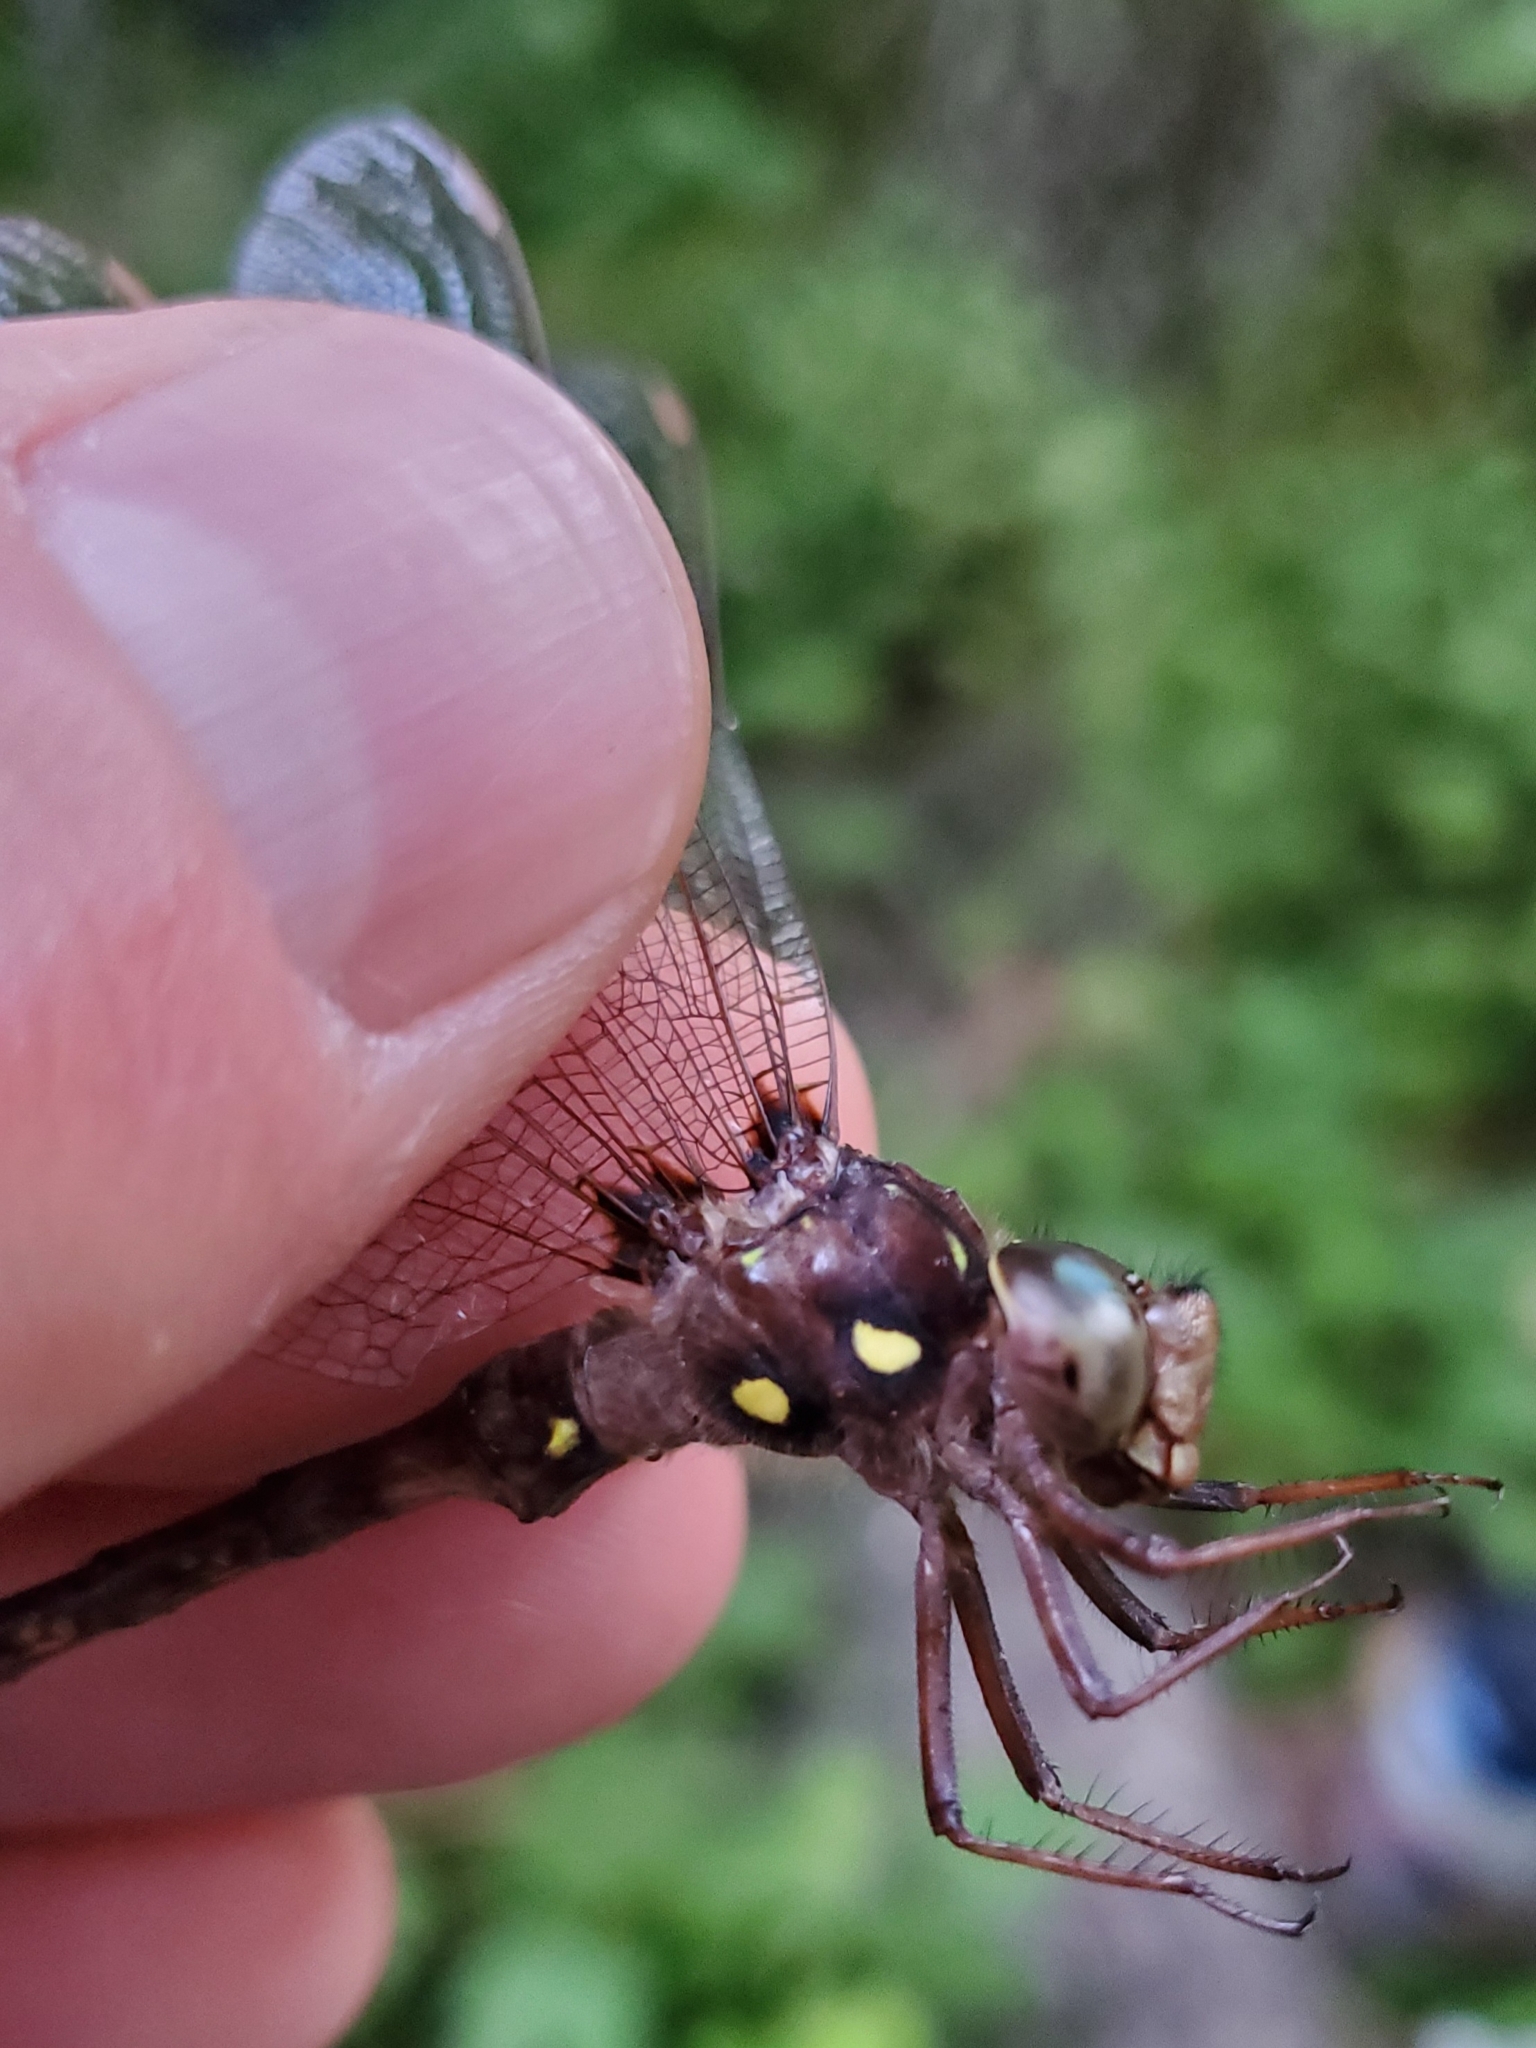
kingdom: Animalia
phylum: Arthropoda
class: Insecta
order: Odonata
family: Aeshnidae
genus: Boyeria
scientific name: Boyeria vinosa
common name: Fawn darner
